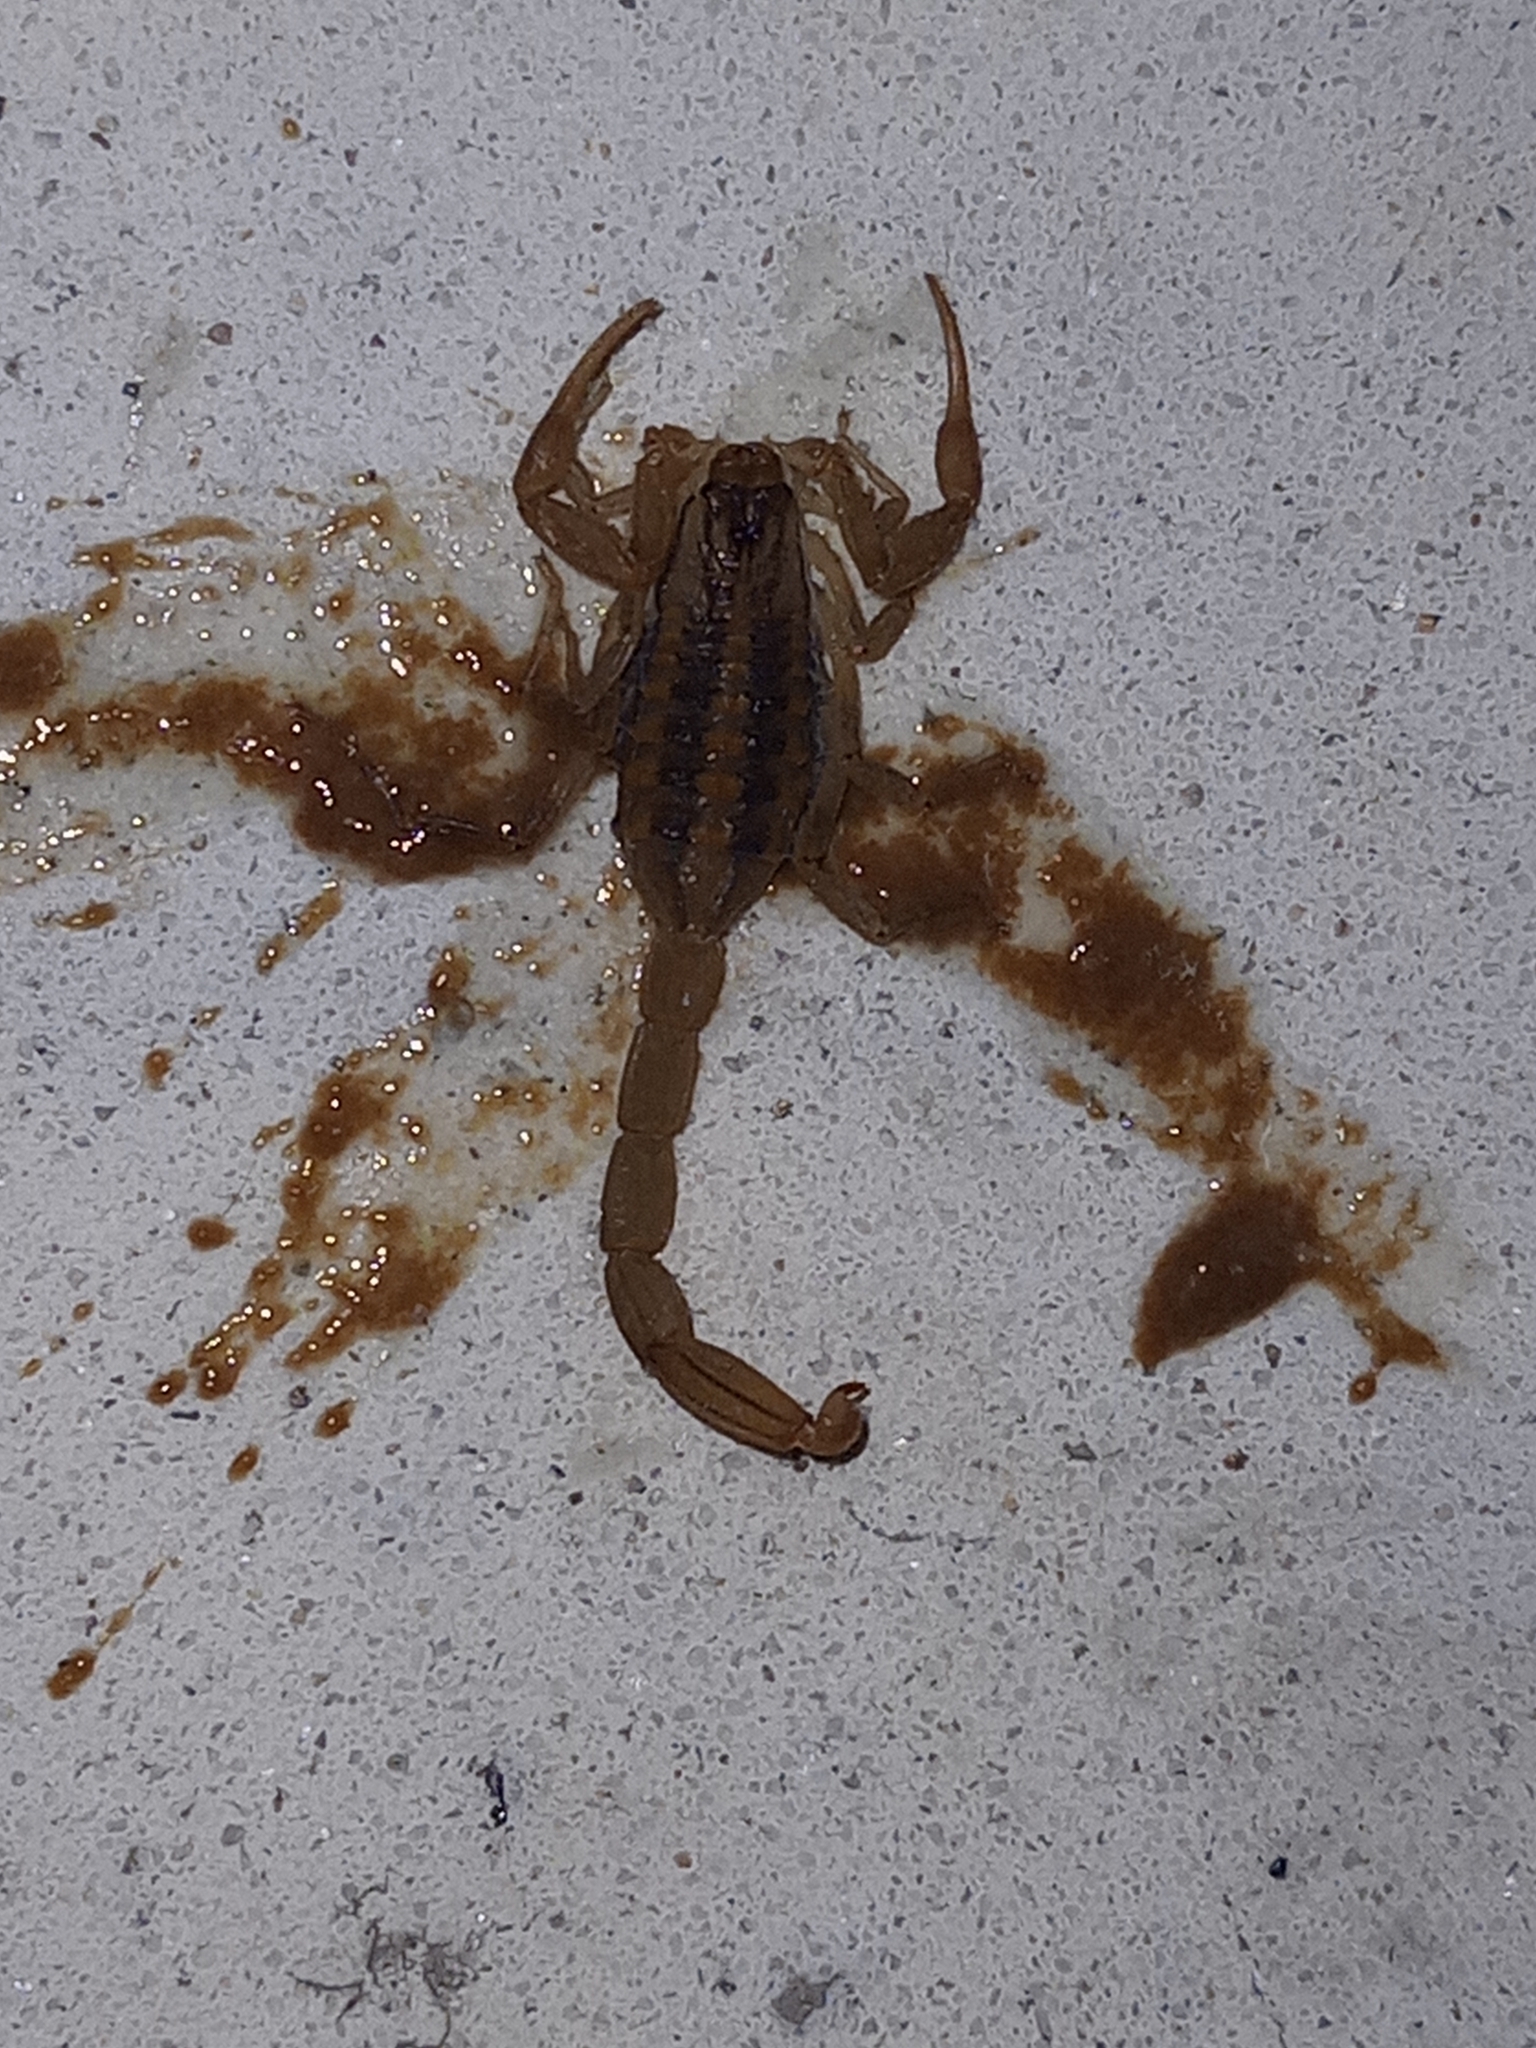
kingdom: Animalia
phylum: Arthropoda
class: Arachnida
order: Scorpiones
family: Buthidae
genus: Centruroides
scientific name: Centruroides ornatus
